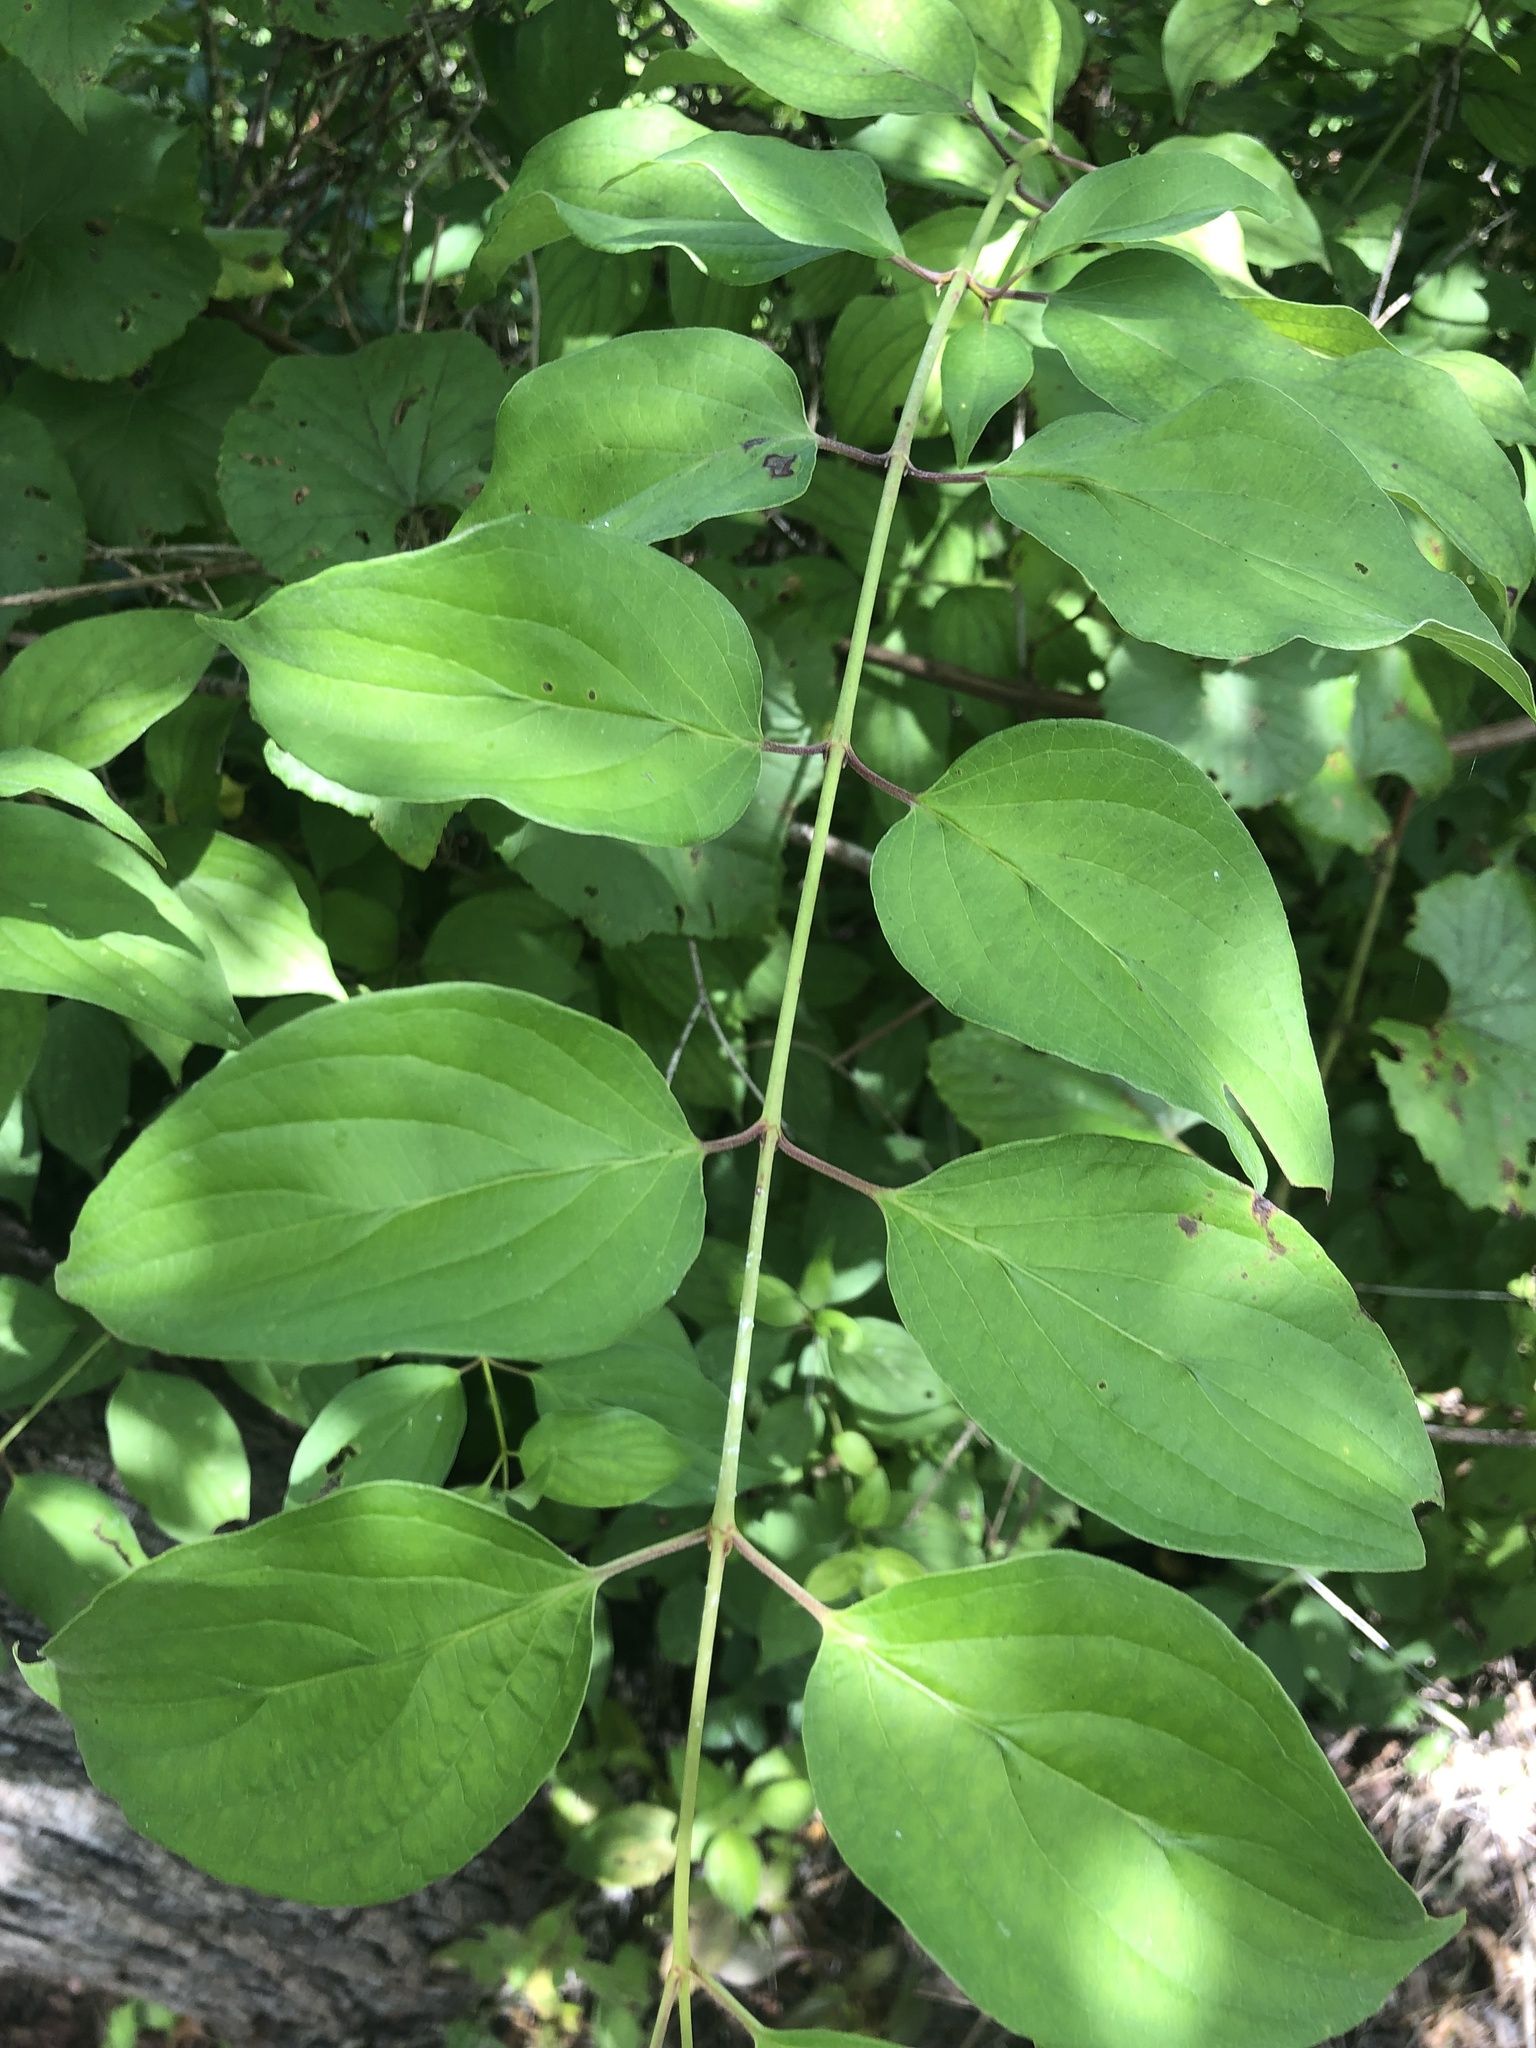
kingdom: Plantae
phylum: Tracheophyta
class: Magnoliopsida
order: Cornales
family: Cornaceae
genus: Cornus
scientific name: Cornus drummondii
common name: Rough-leaf dogwood
